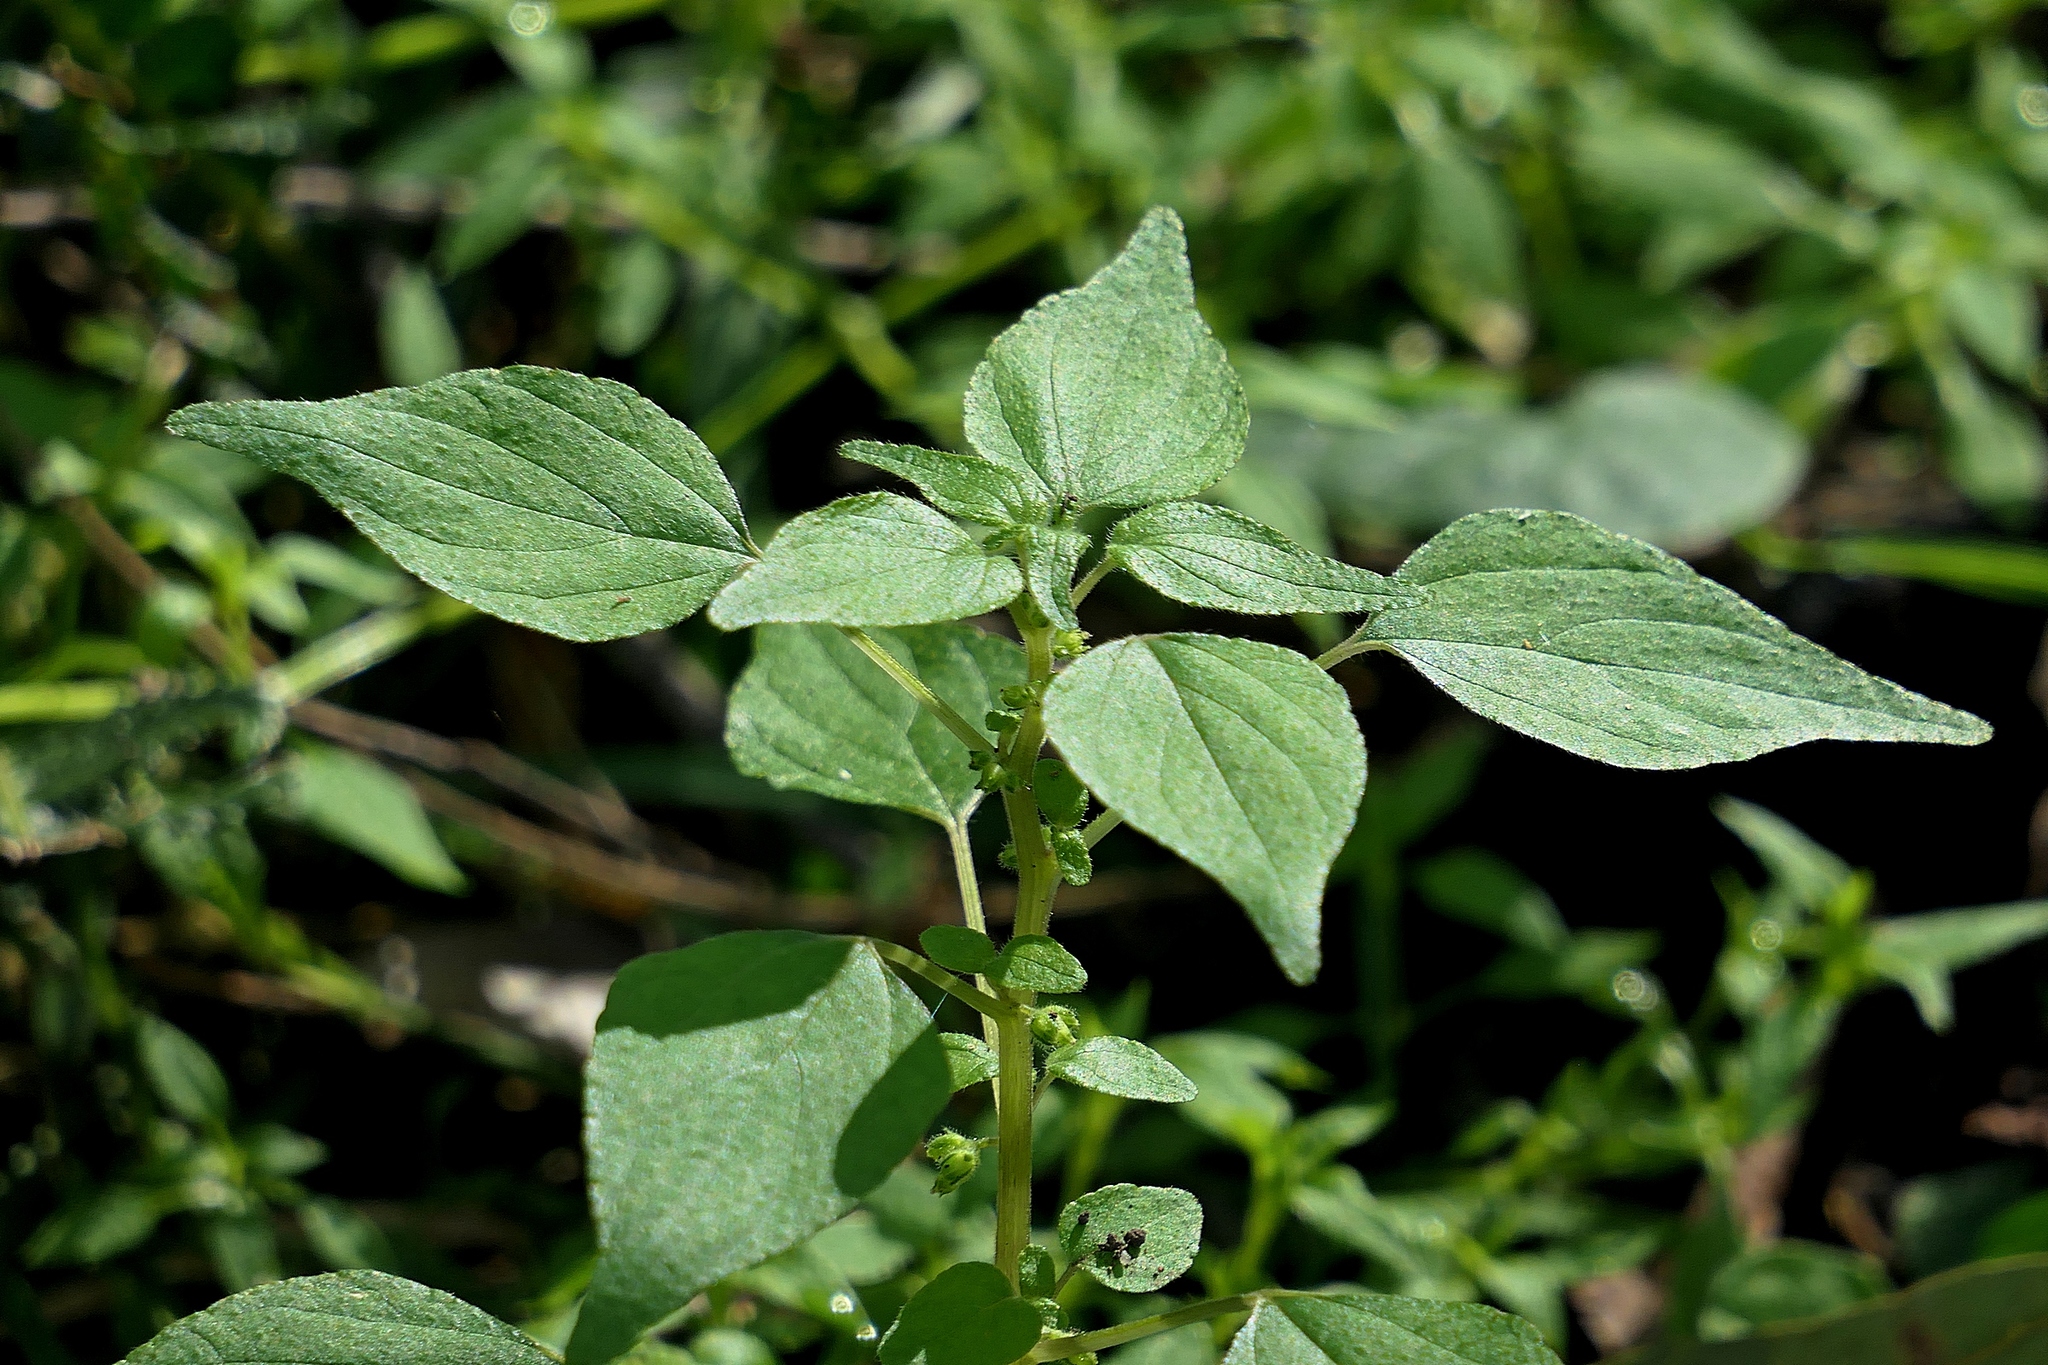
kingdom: Plantae
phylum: Tracheophyta
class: Magnoliopsida
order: Rosales
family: Urticaceae
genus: Parietaria
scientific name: Parietaria debilis
